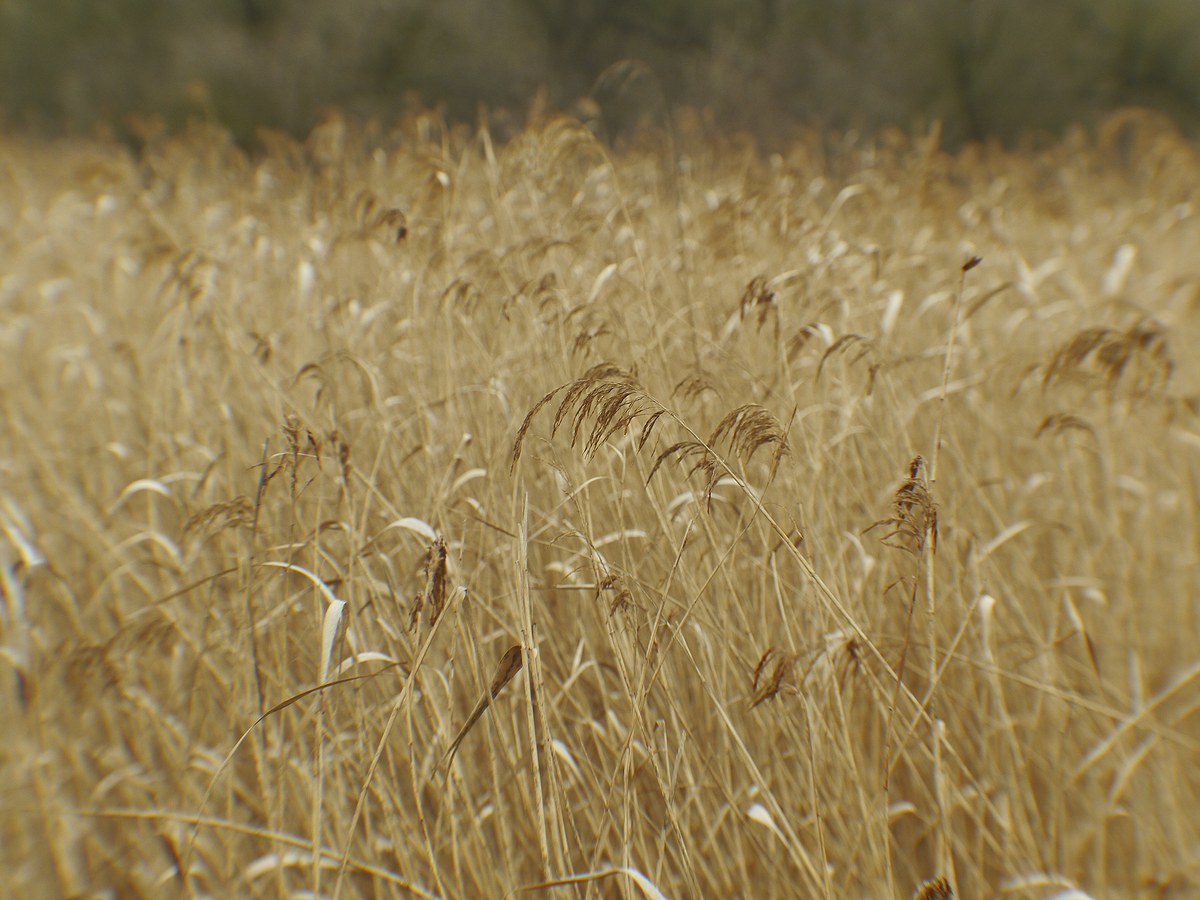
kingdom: Plantae
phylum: Tracheophyta
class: Liliopsida
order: Poales
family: Poaceae
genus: Phragmites
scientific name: Phragmites australis
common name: Common reed
